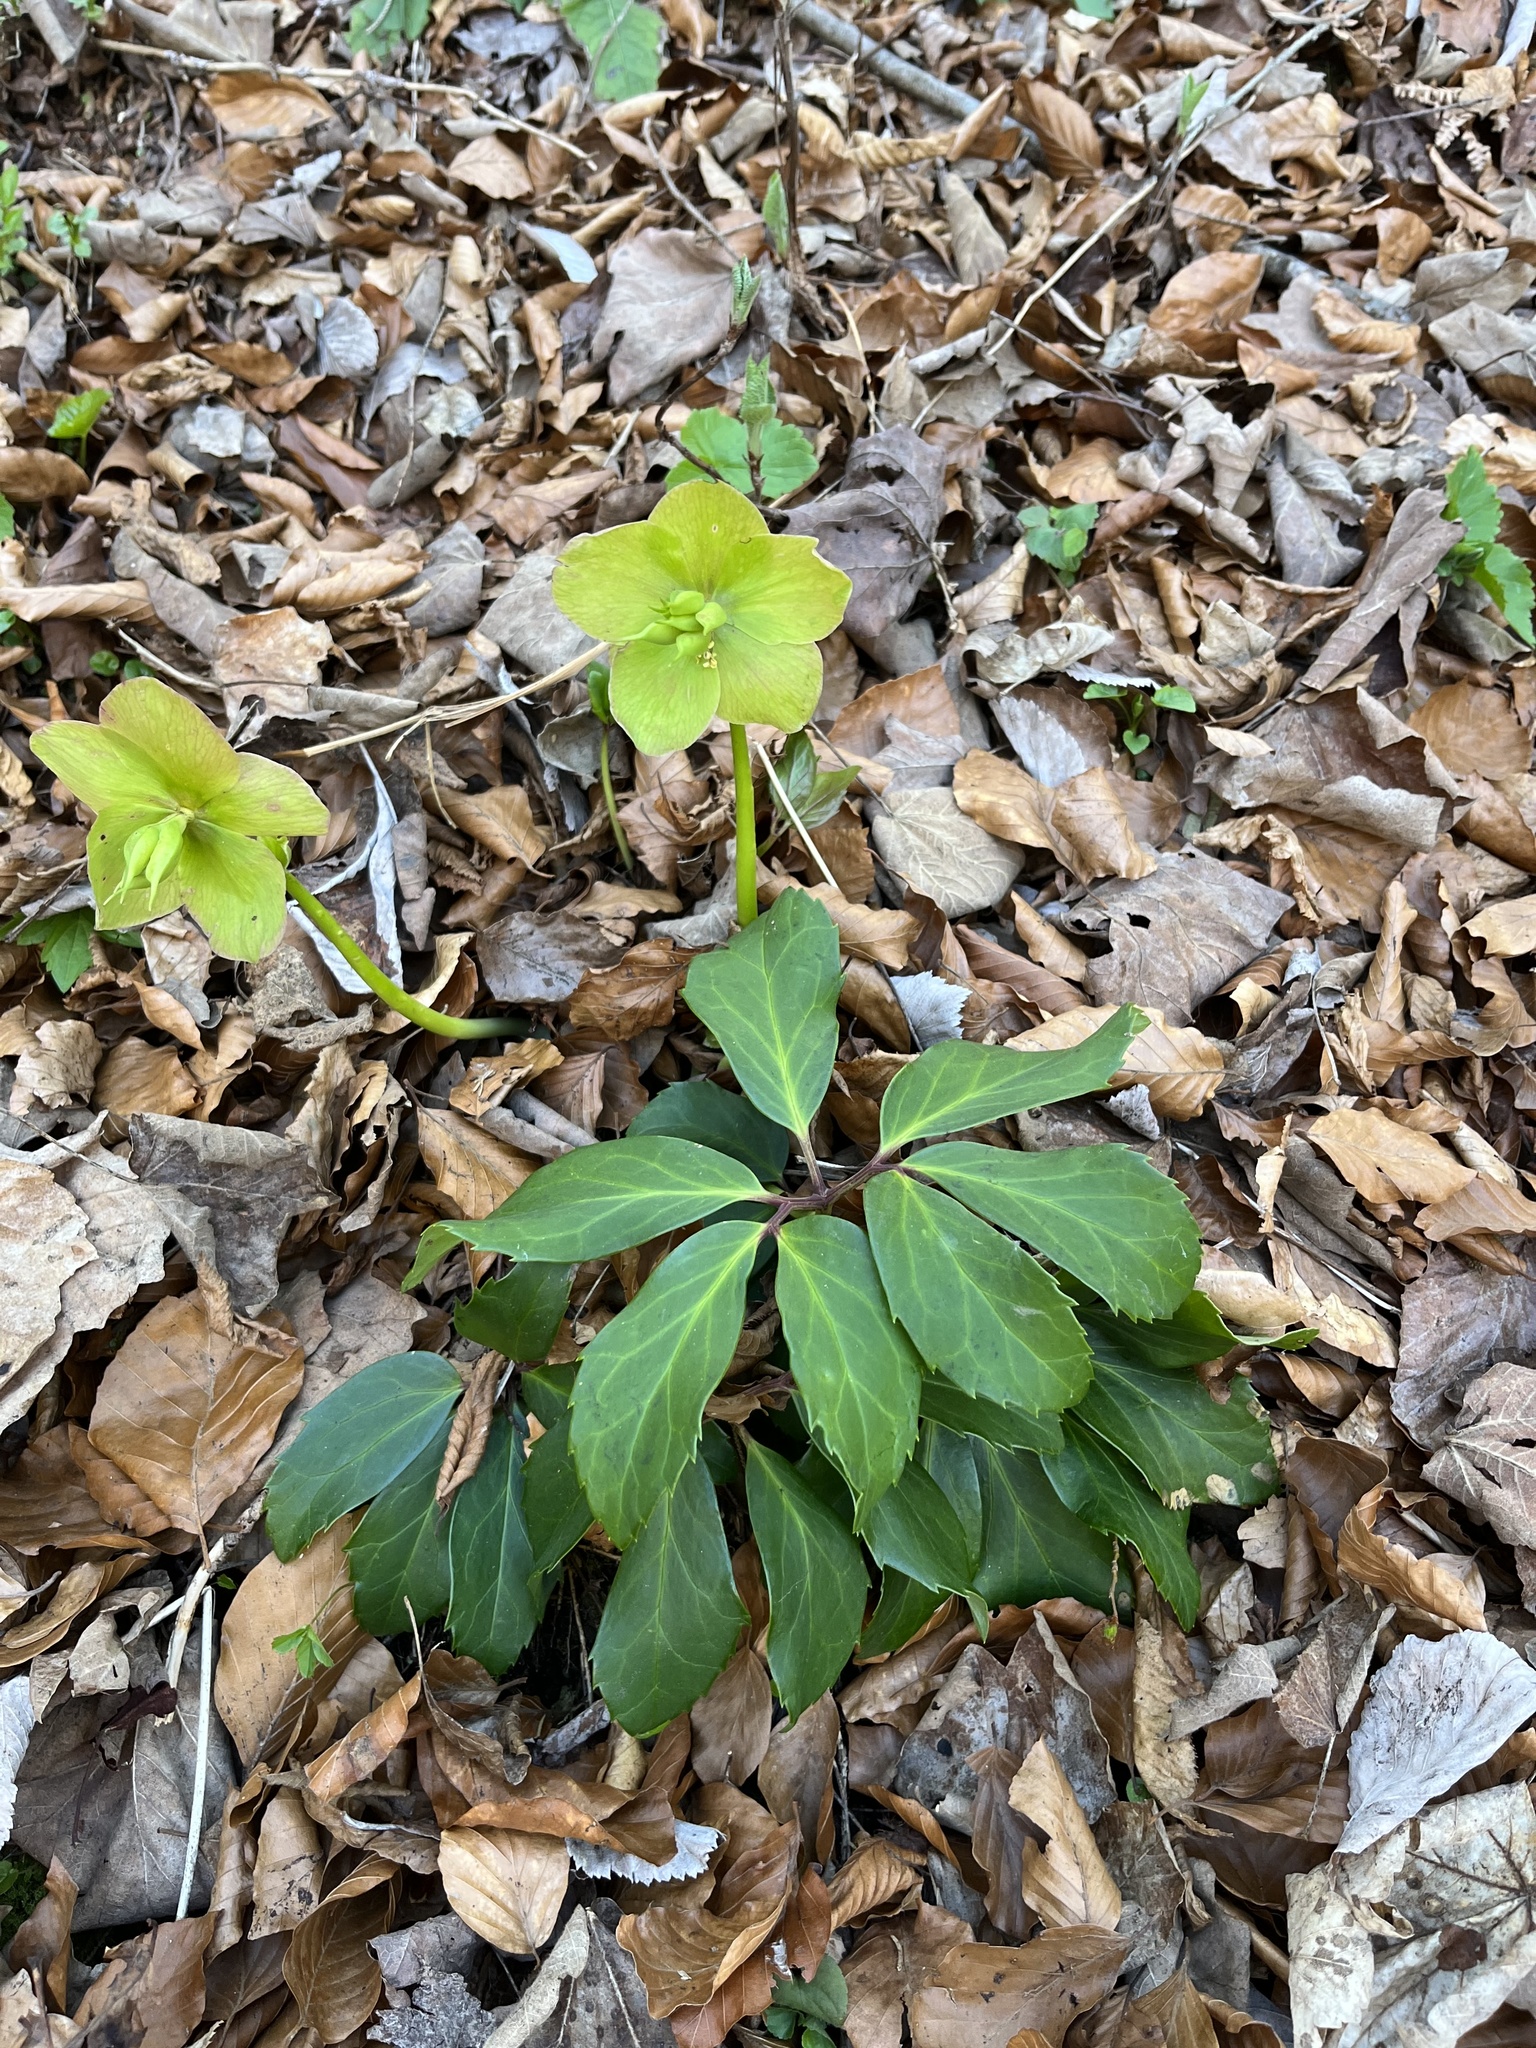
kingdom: Plantae
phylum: Tracheophyta
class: Magnoliopsida
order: Ranunculales
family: Ranunculaceae
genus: Helleborus
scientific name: Helleborus niger
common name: Black hellebore
